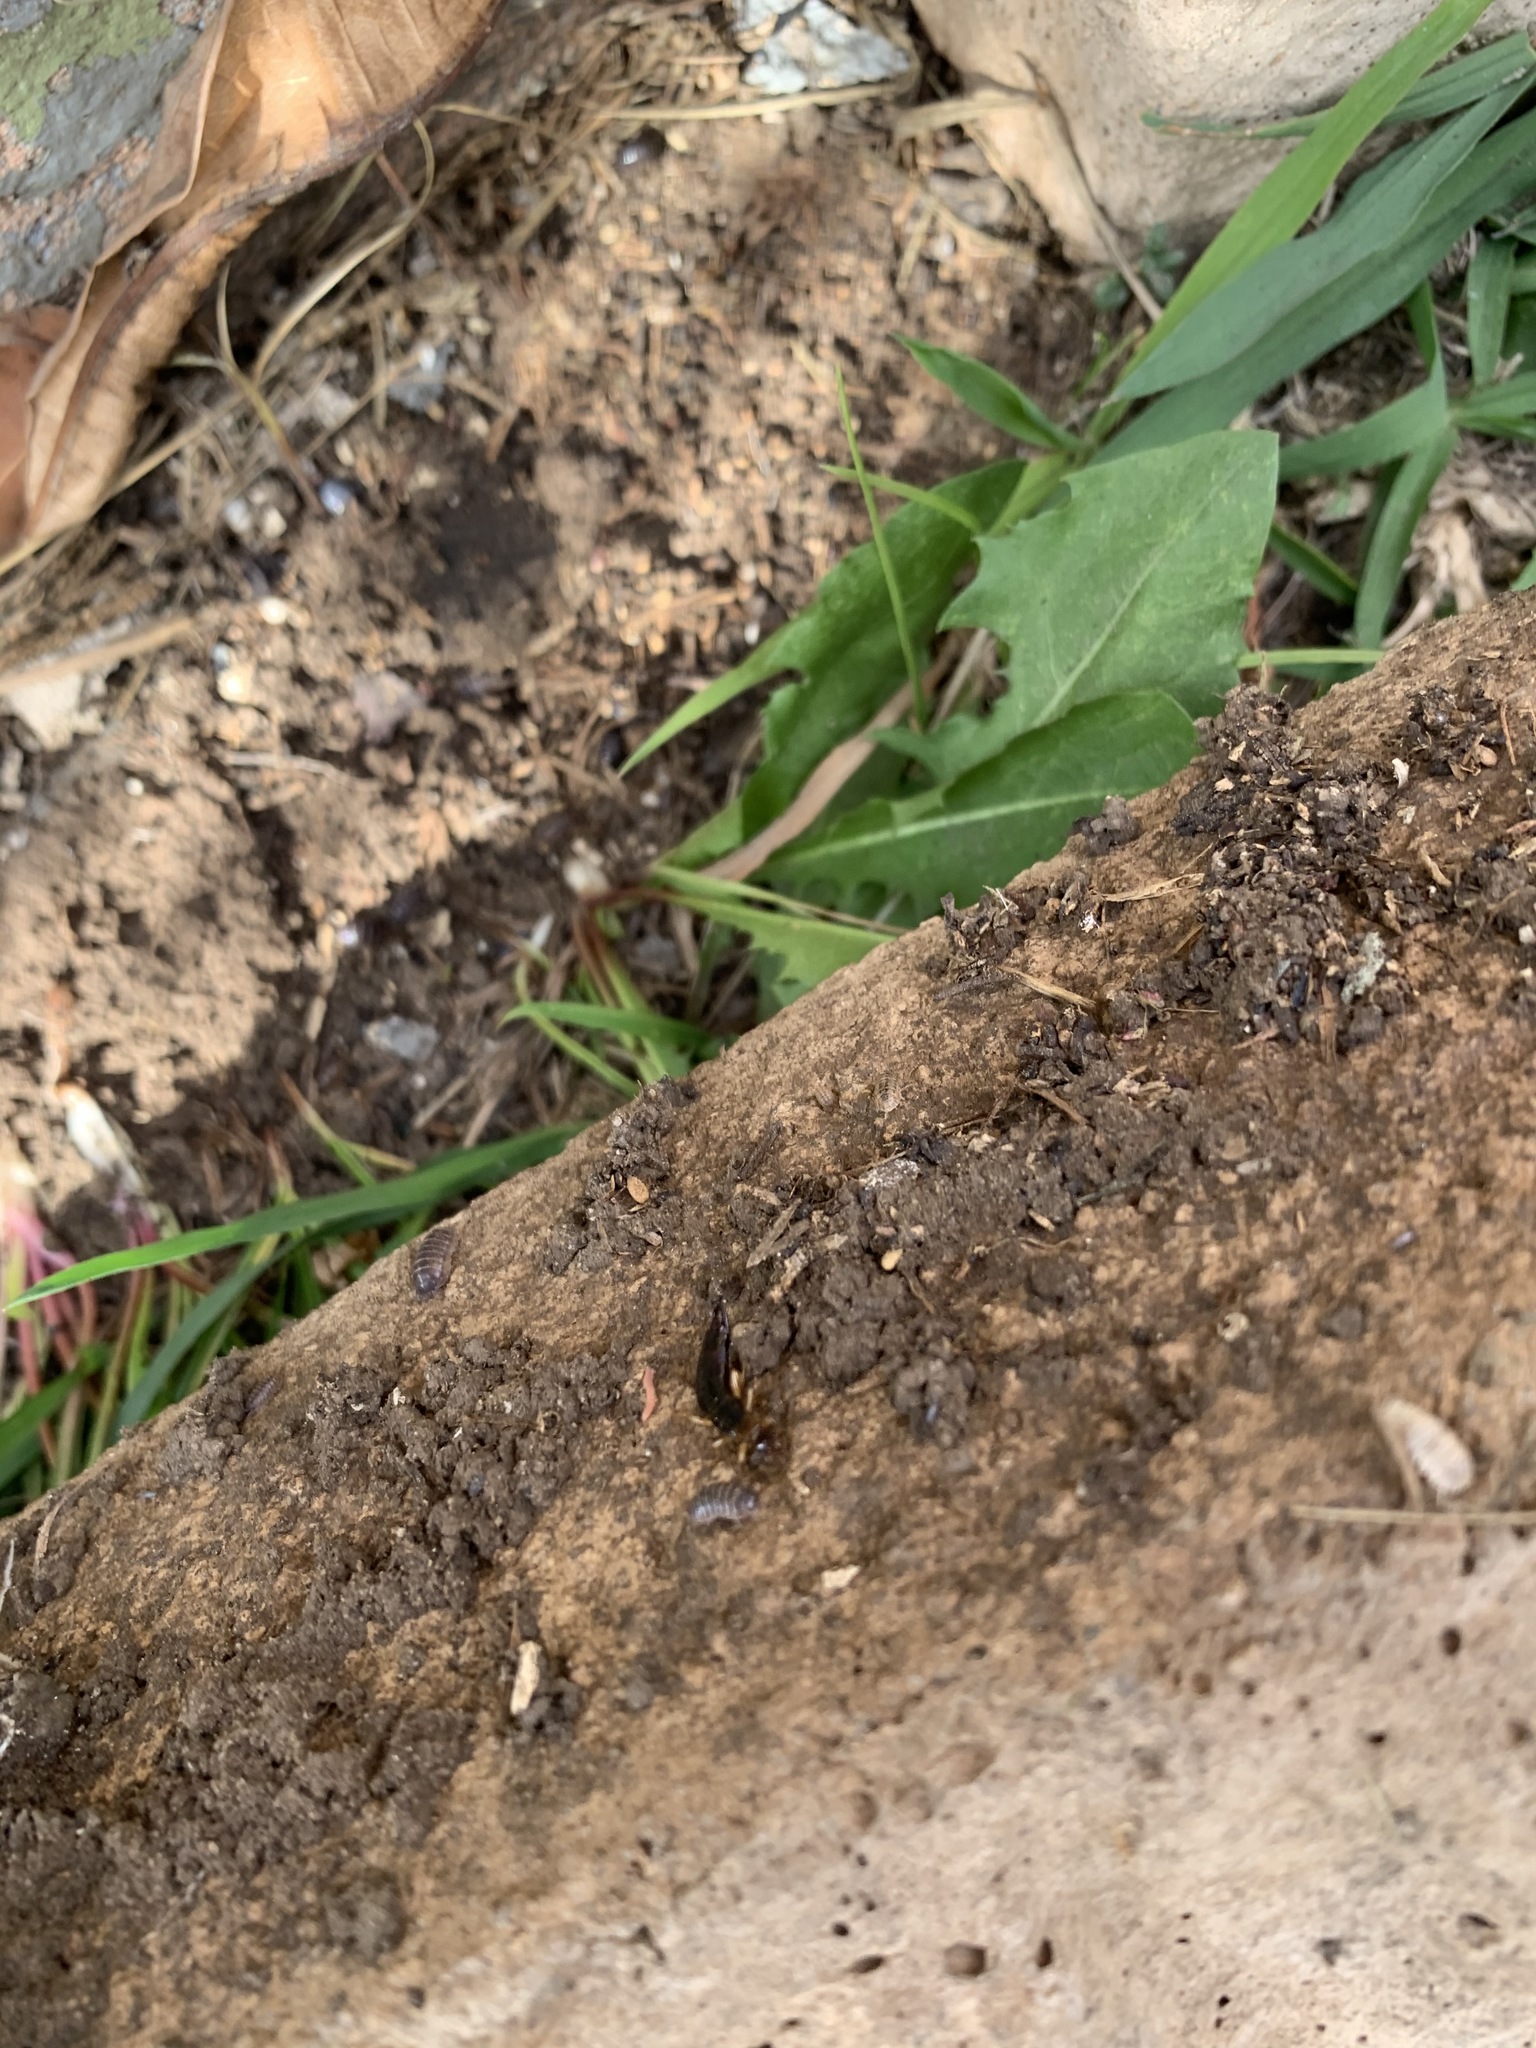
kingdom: Animalia
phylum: Arthropoda
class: Malacostraca
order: Isopoda
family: Armadillidiidae
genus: Armadillidium
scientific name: Armadillidium vulgare
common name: Common pill woodlouse
